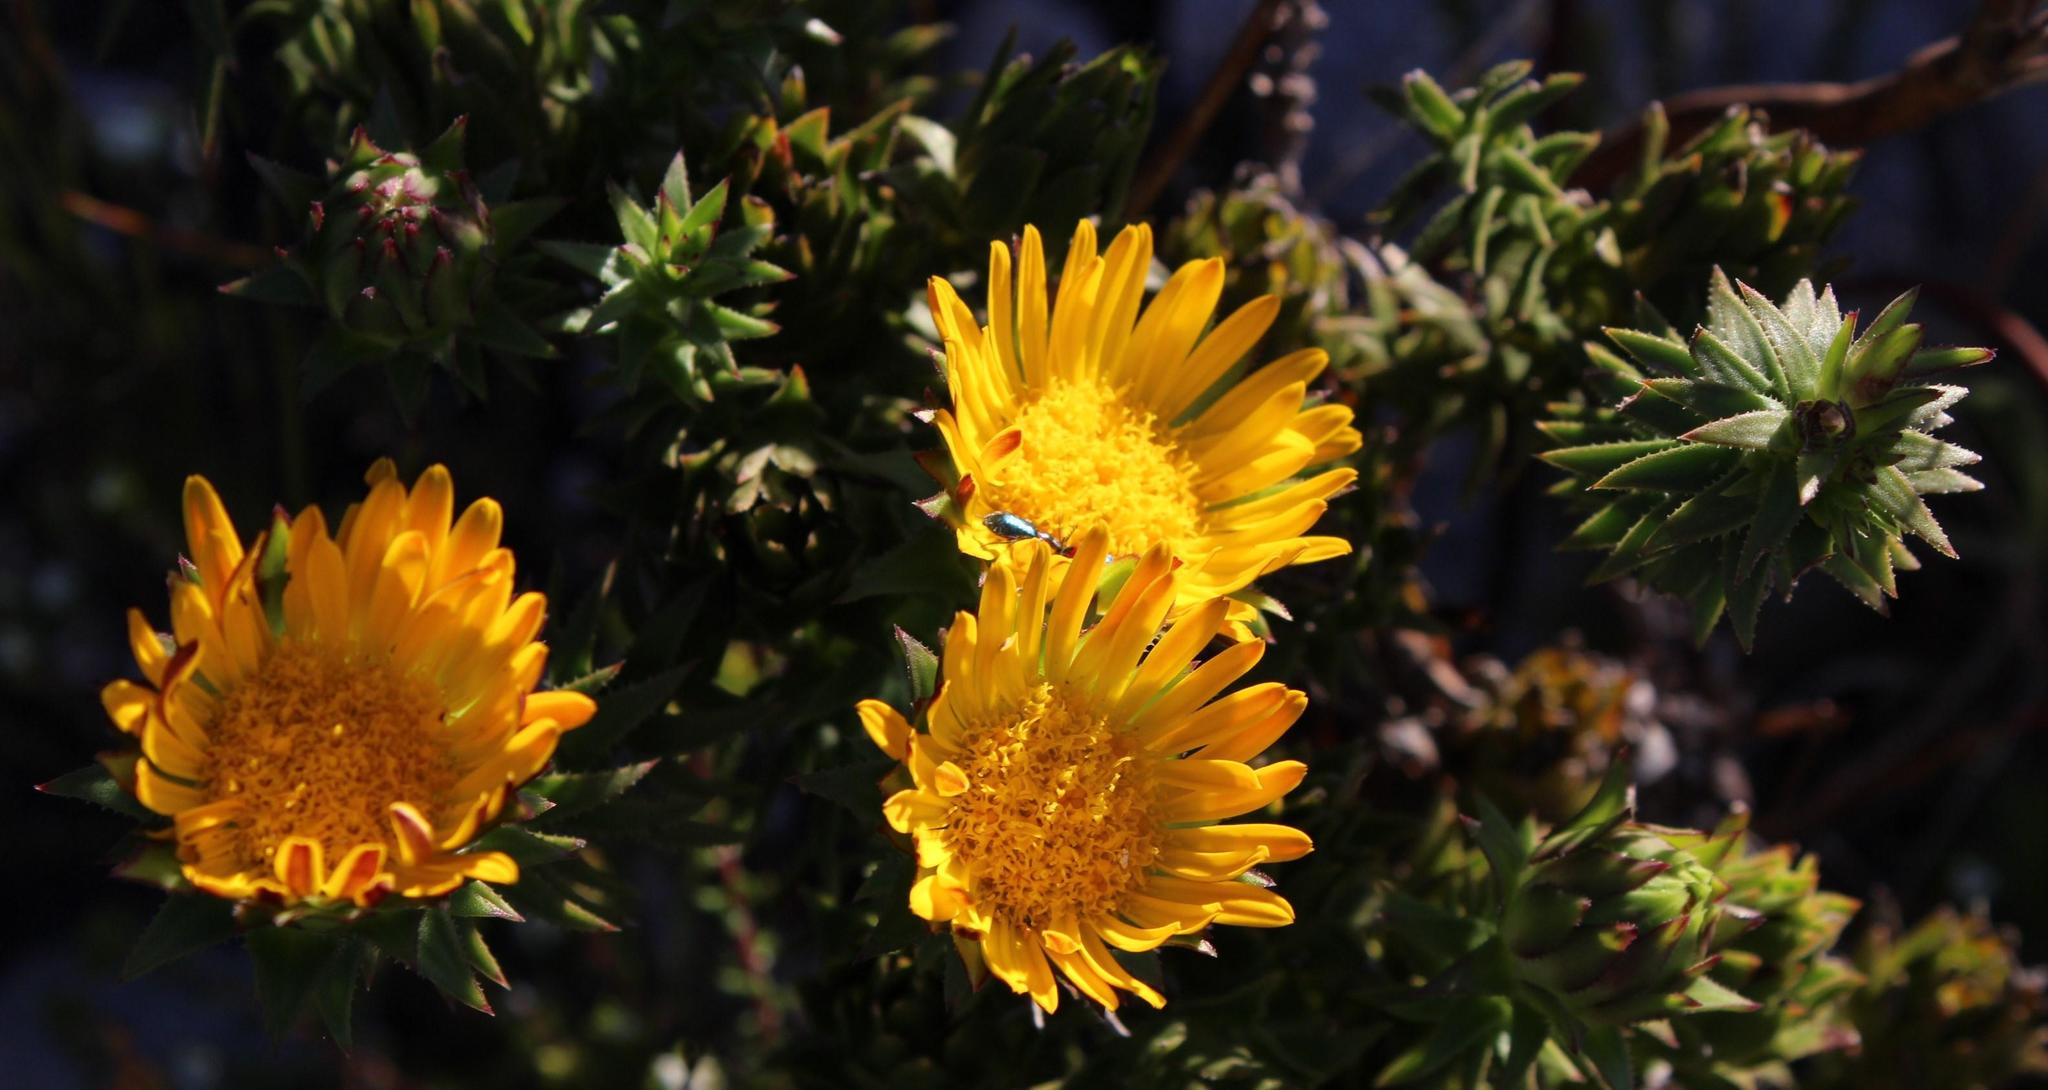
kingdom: Plantae
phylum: Tracheophyta
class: Magnoliopsida
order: Asterales
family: Asteraceae
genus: Oedera
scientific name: Oedera imbricata
